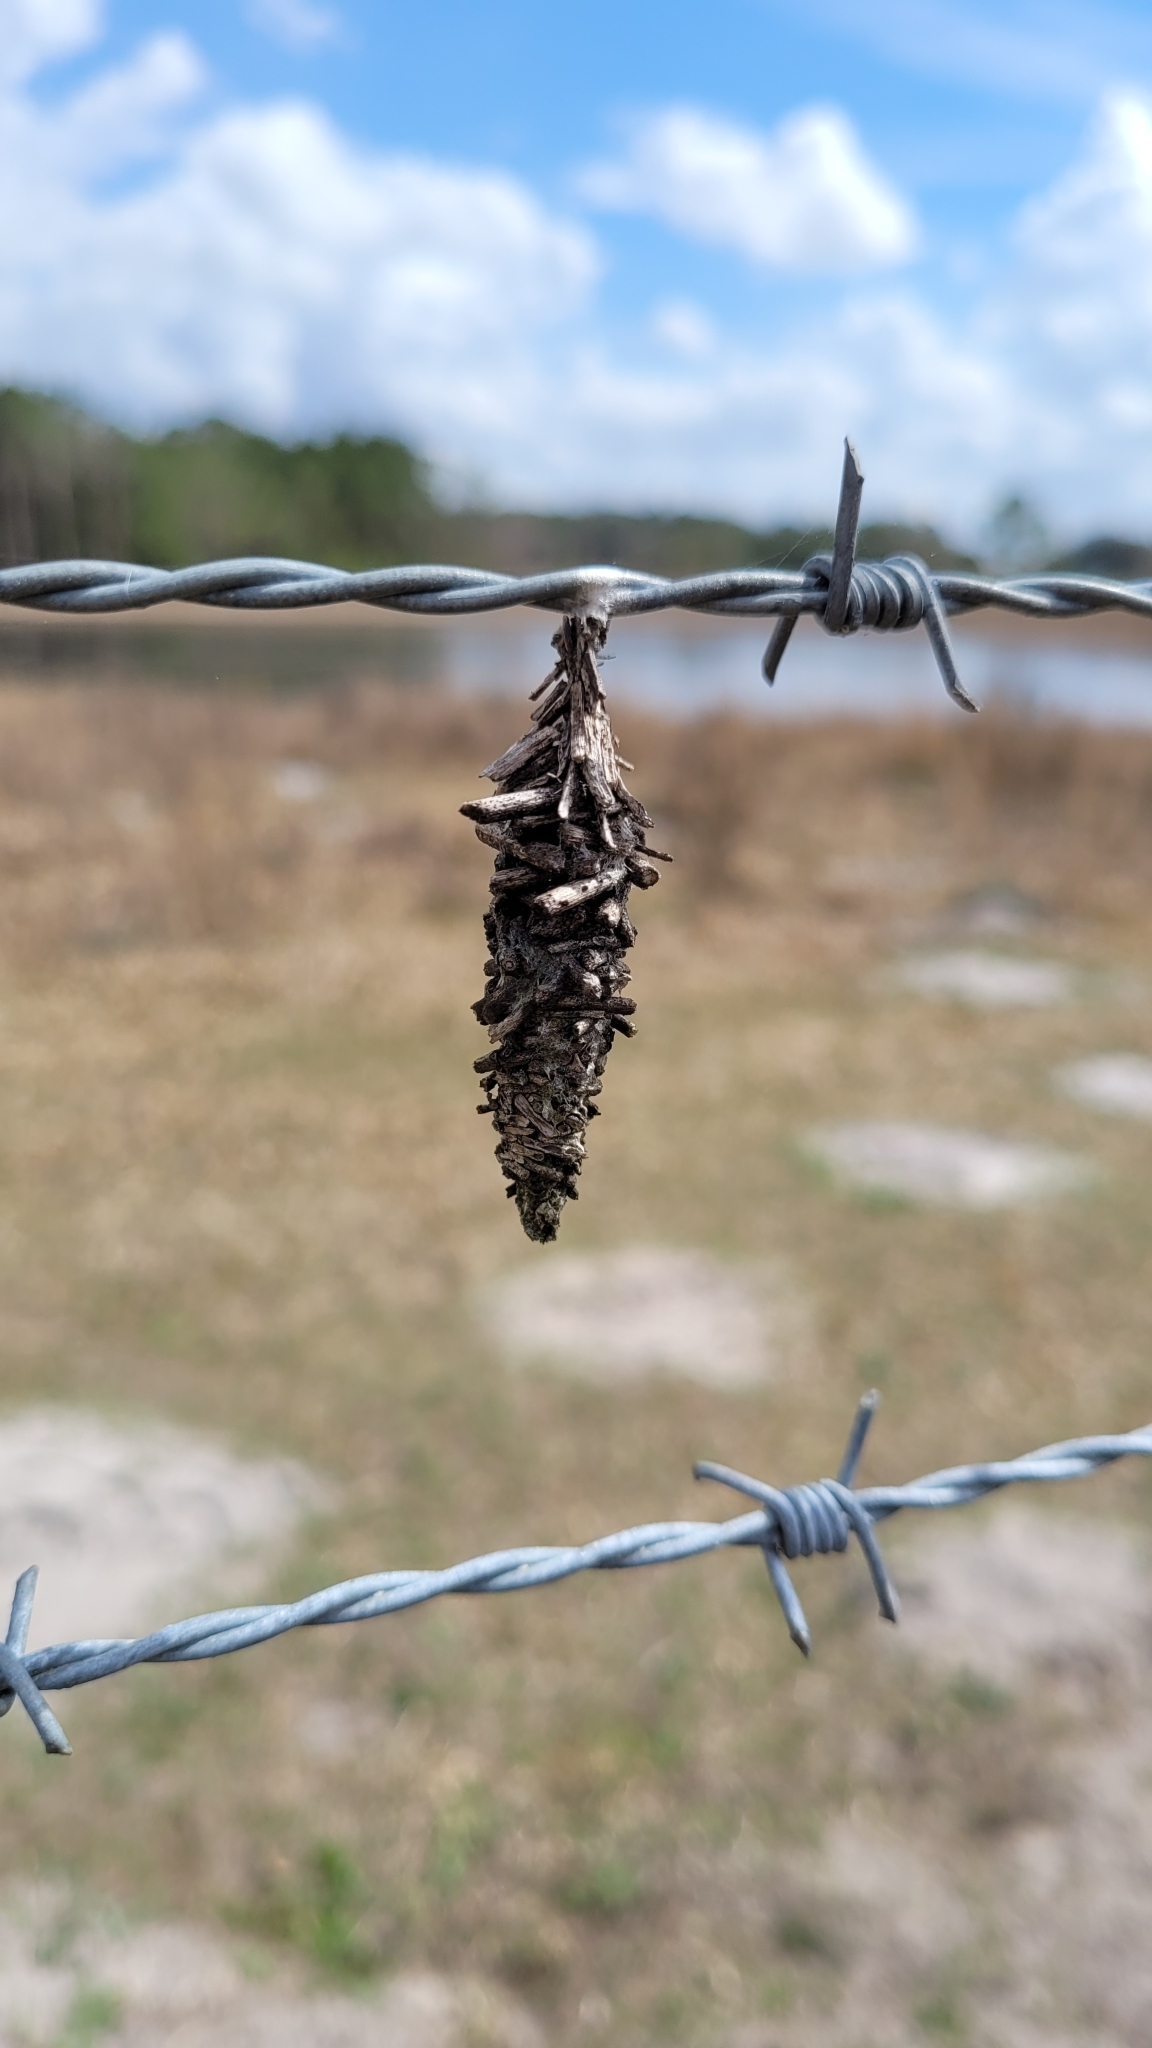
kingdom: Animalia
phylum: Arthropoda
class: Insecta
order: Lepidoptera
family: Psychidae
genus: Oiketicus
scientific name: Oiketicus
